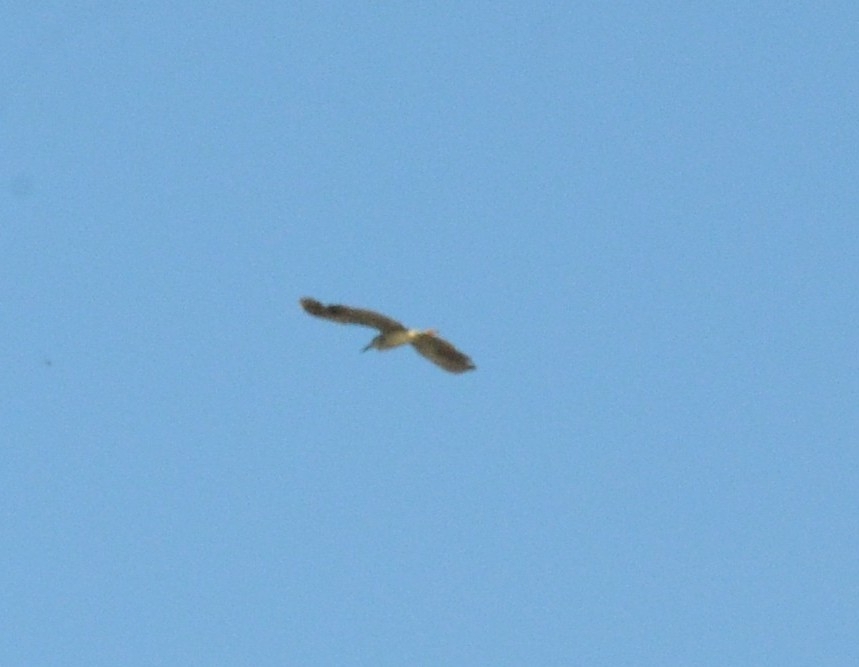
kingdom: Animalia
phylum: Chordata
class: Aves
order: Pelecaniformes
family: Ardeidae
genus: Nycticorax
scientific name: Nycticorax nycticorax
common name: Black-crowned night heron
